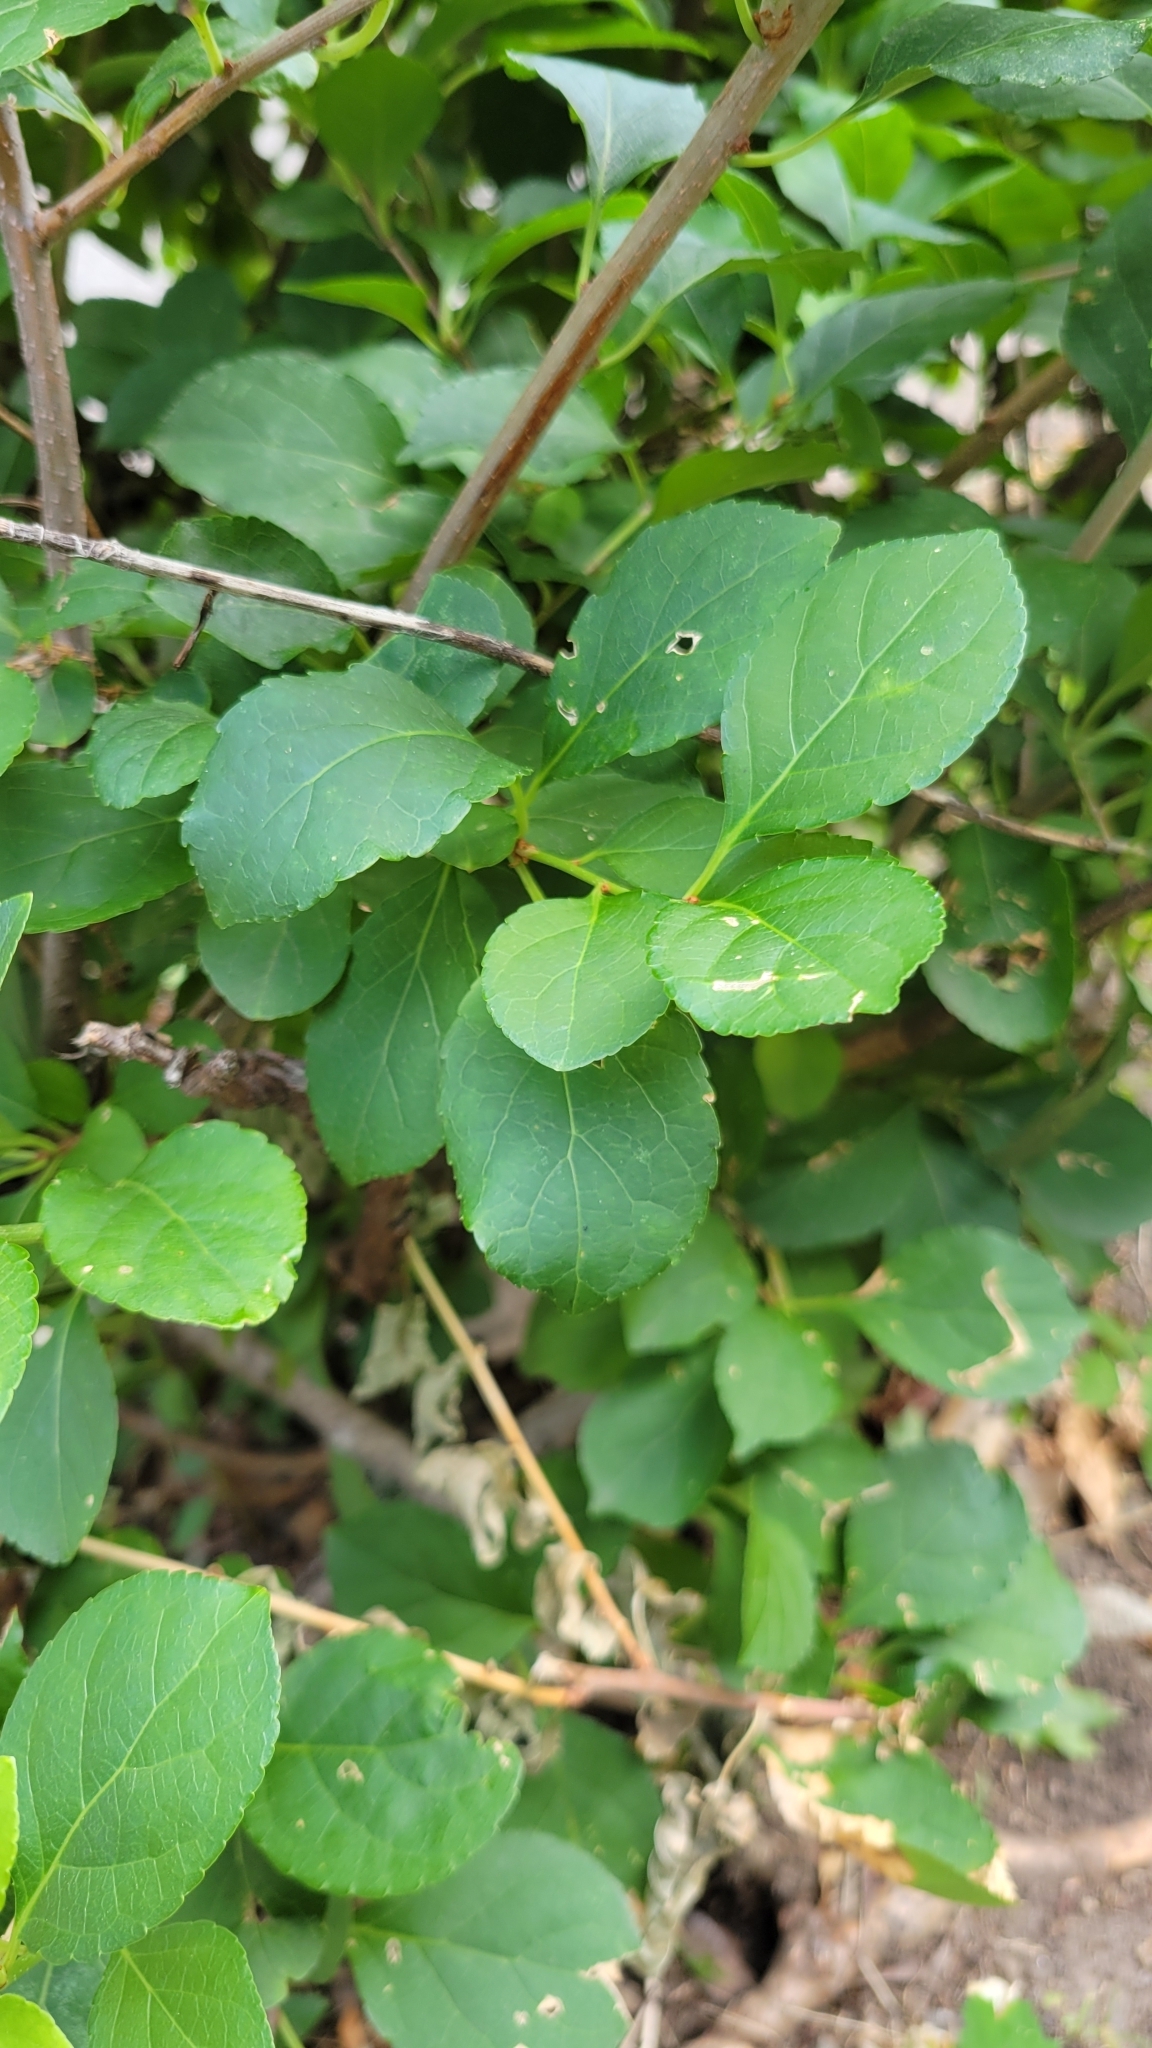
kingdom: Plantae
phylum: Tracheophyta
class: Magnoliopsida
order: Celastrales
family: Celastraceae
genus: Celastrus
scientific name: Celastrus orbiculatus
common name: Oriental bittersweet
